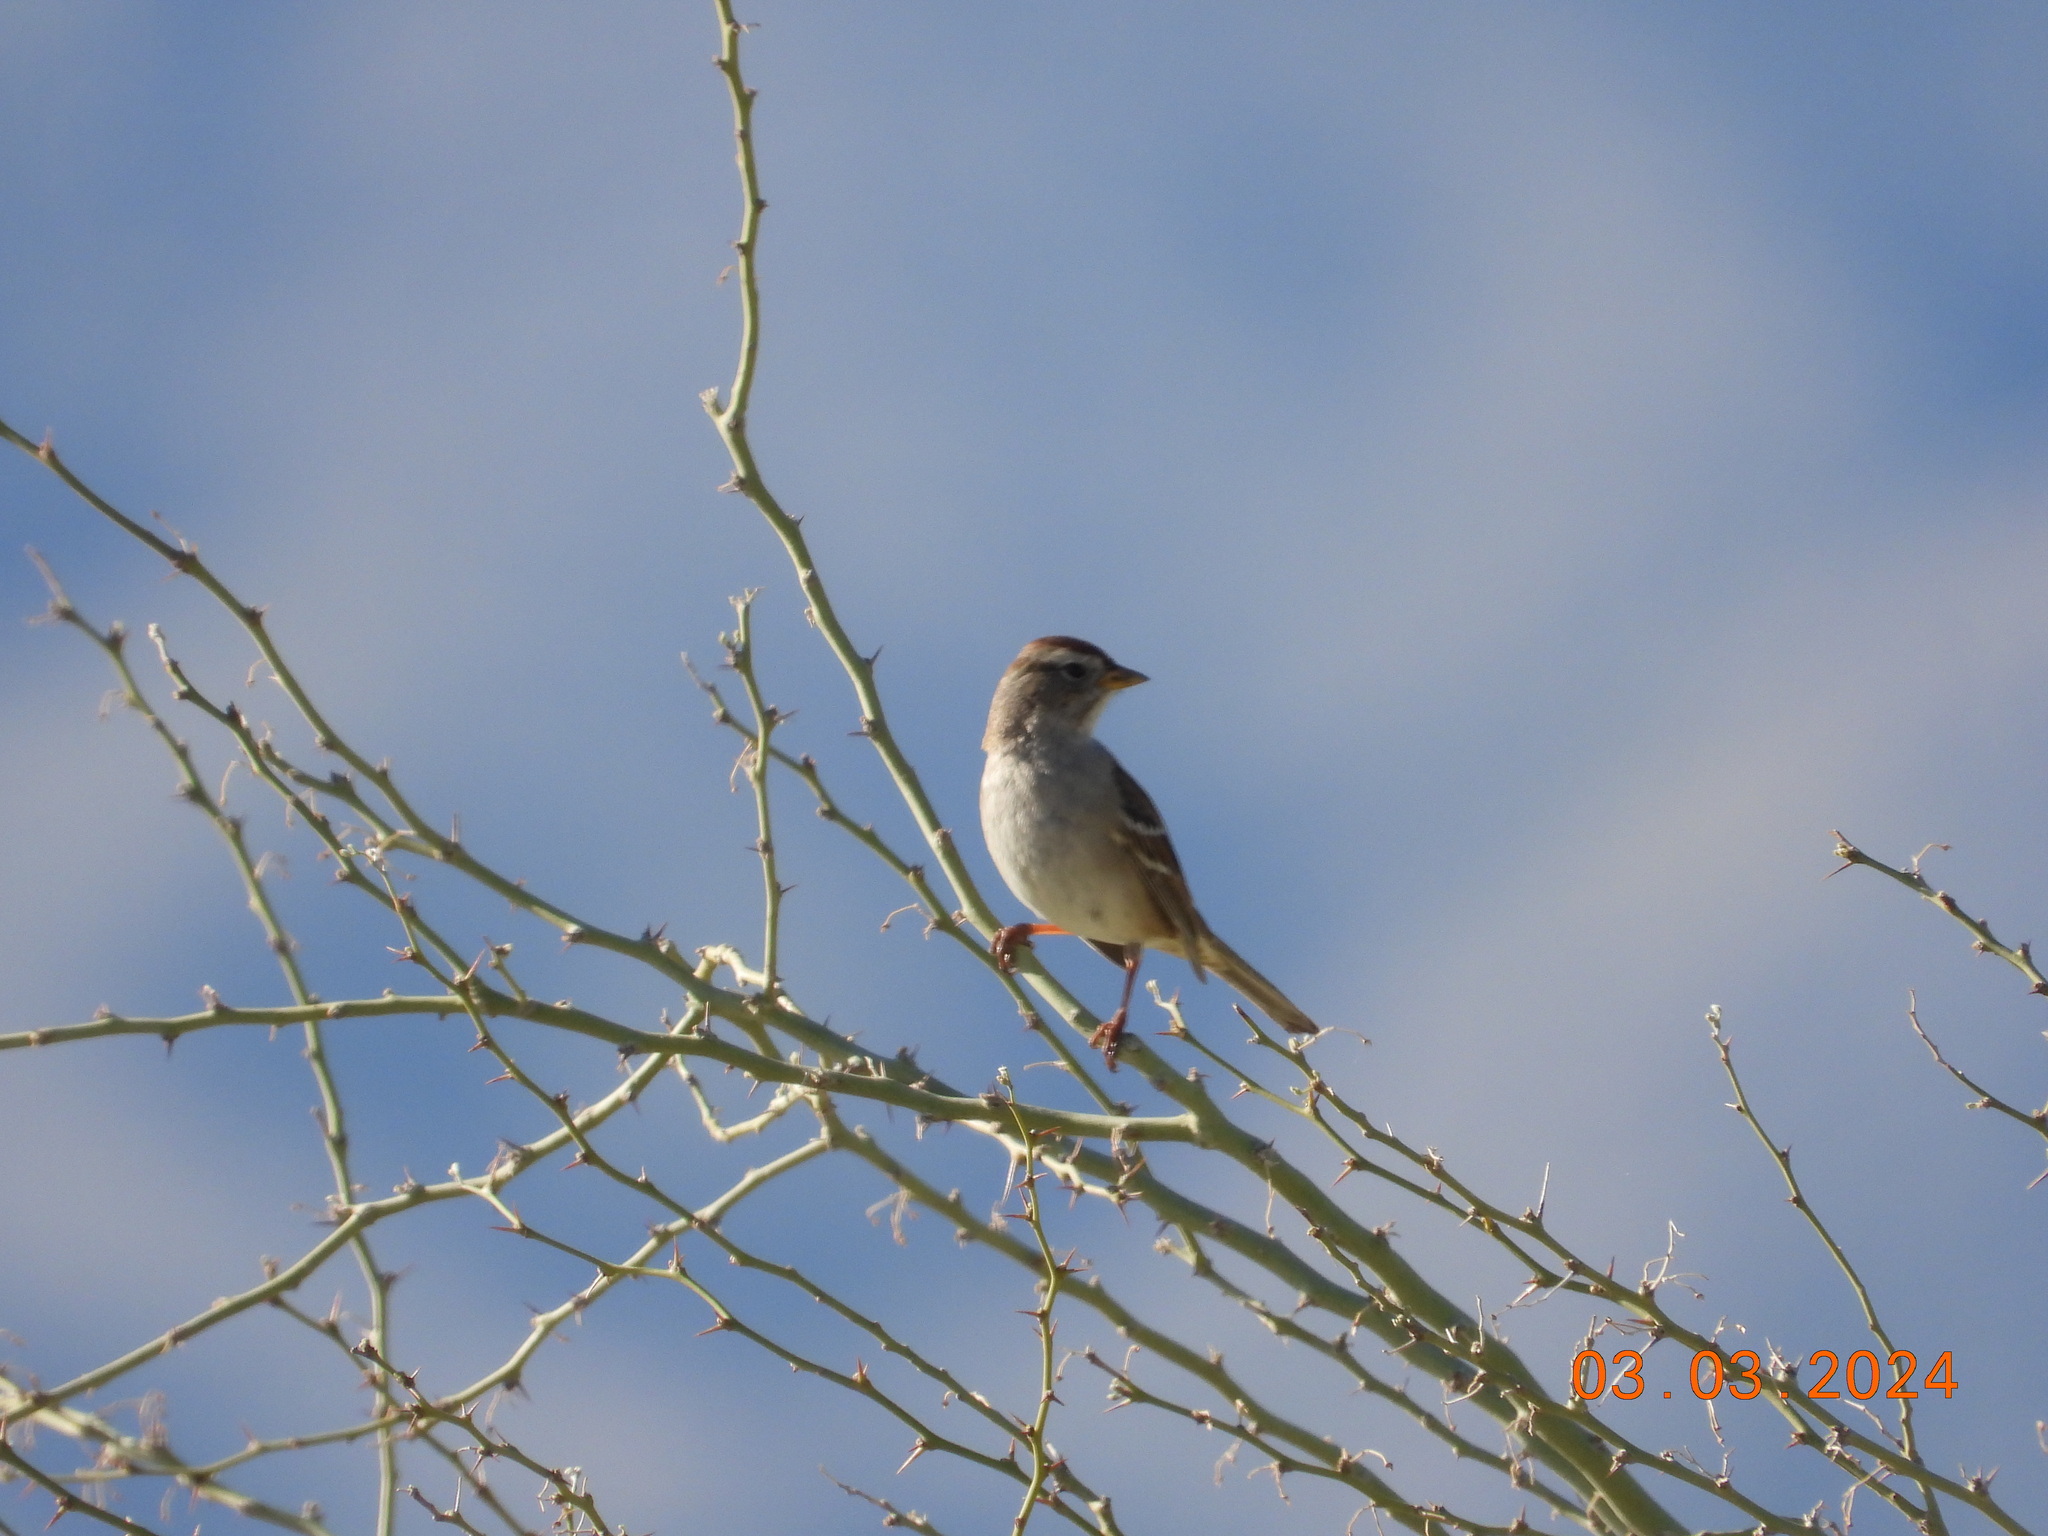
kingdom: Animalia
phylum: Chordata
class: Aves
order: Passeriformes
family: Passerellidae
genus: Zonotrichia
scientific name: Zonotrichia leucophrys
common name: White-crowned sparrow
